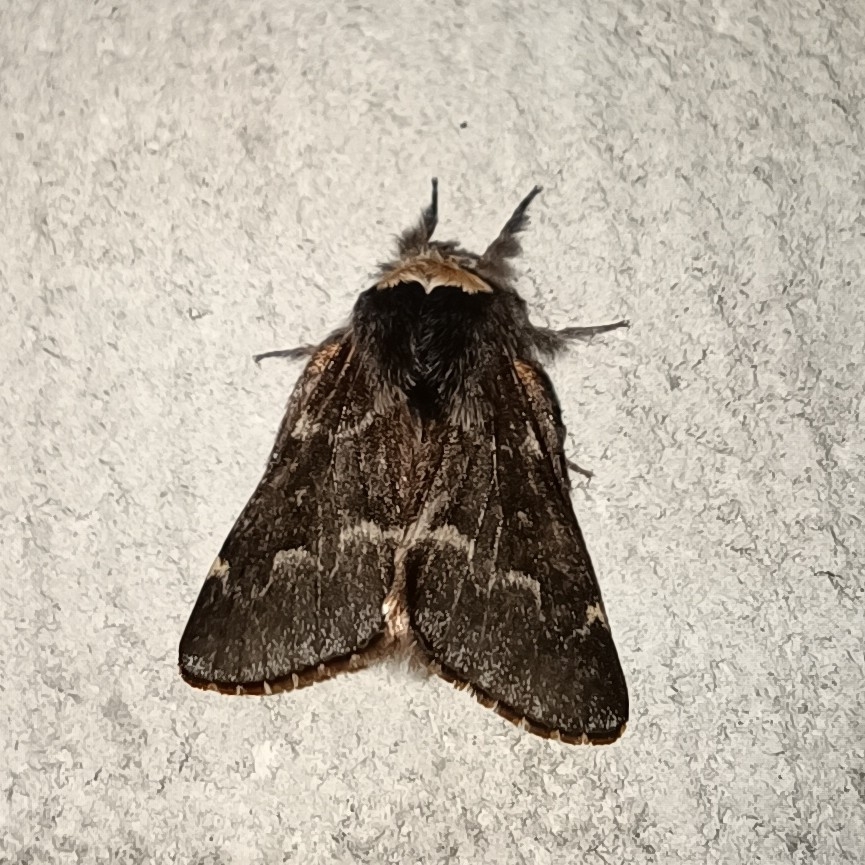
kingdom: Animalia
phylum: Arthropoda
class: Insecta
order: Lepidoptera
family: Lasiocampidae
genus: Poecilocampa
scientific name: Poecilocampa populi
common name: December moth
